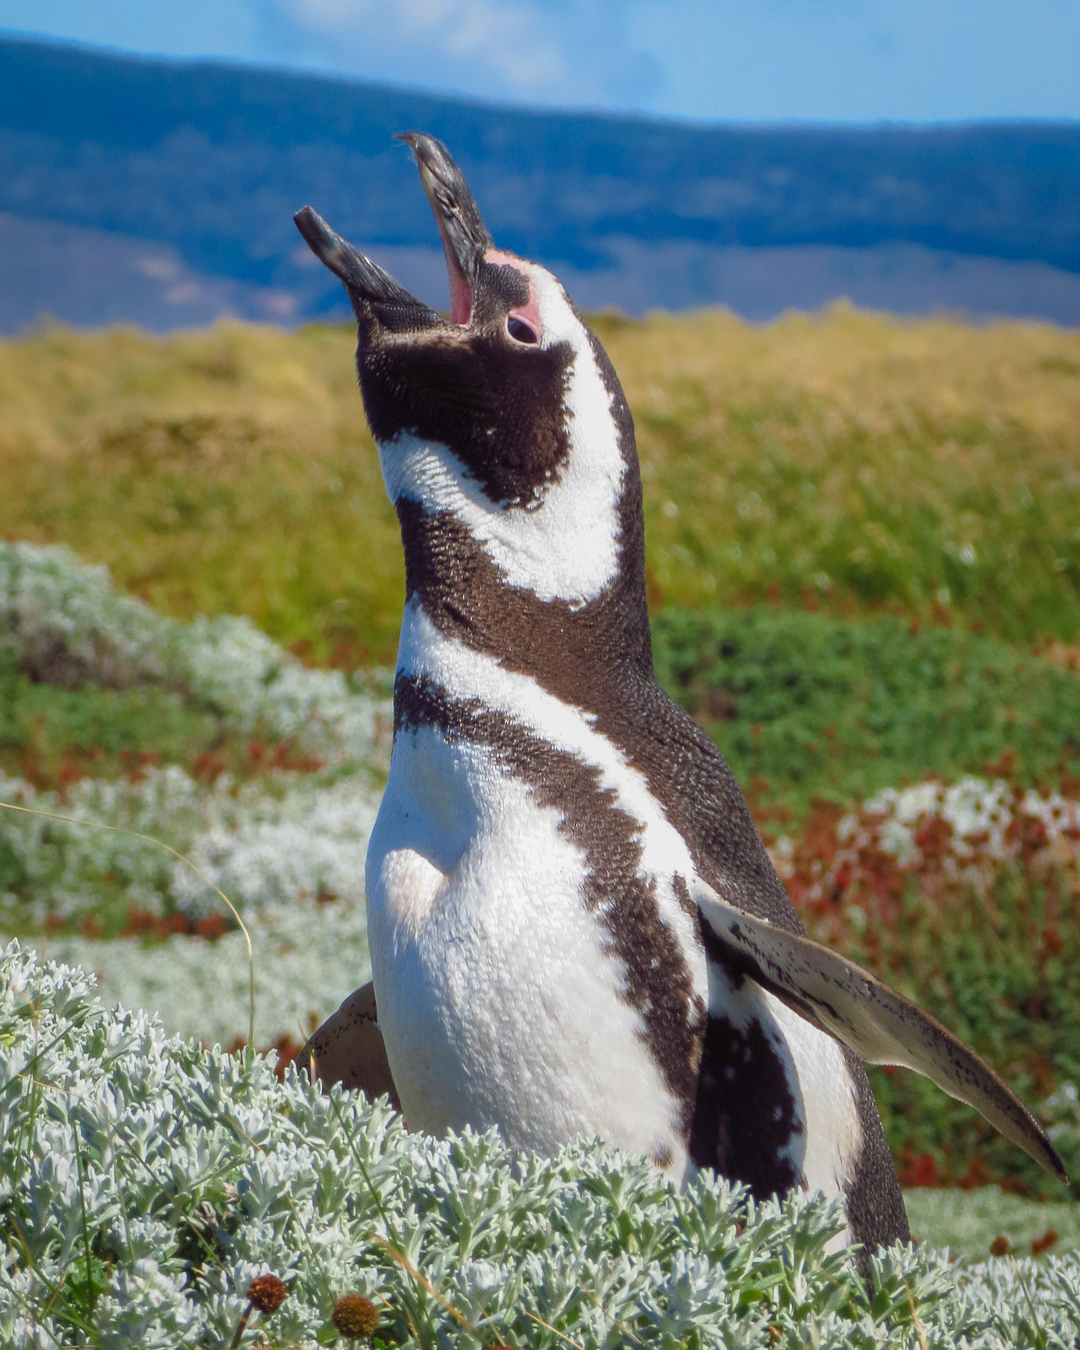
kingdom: Animalia
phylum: Chordata
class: Aves
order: Sphenisciformes
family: Spheniscidae
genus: Spheniscus
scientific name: Spheniscus magellanicus
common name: Magellanic penguin
